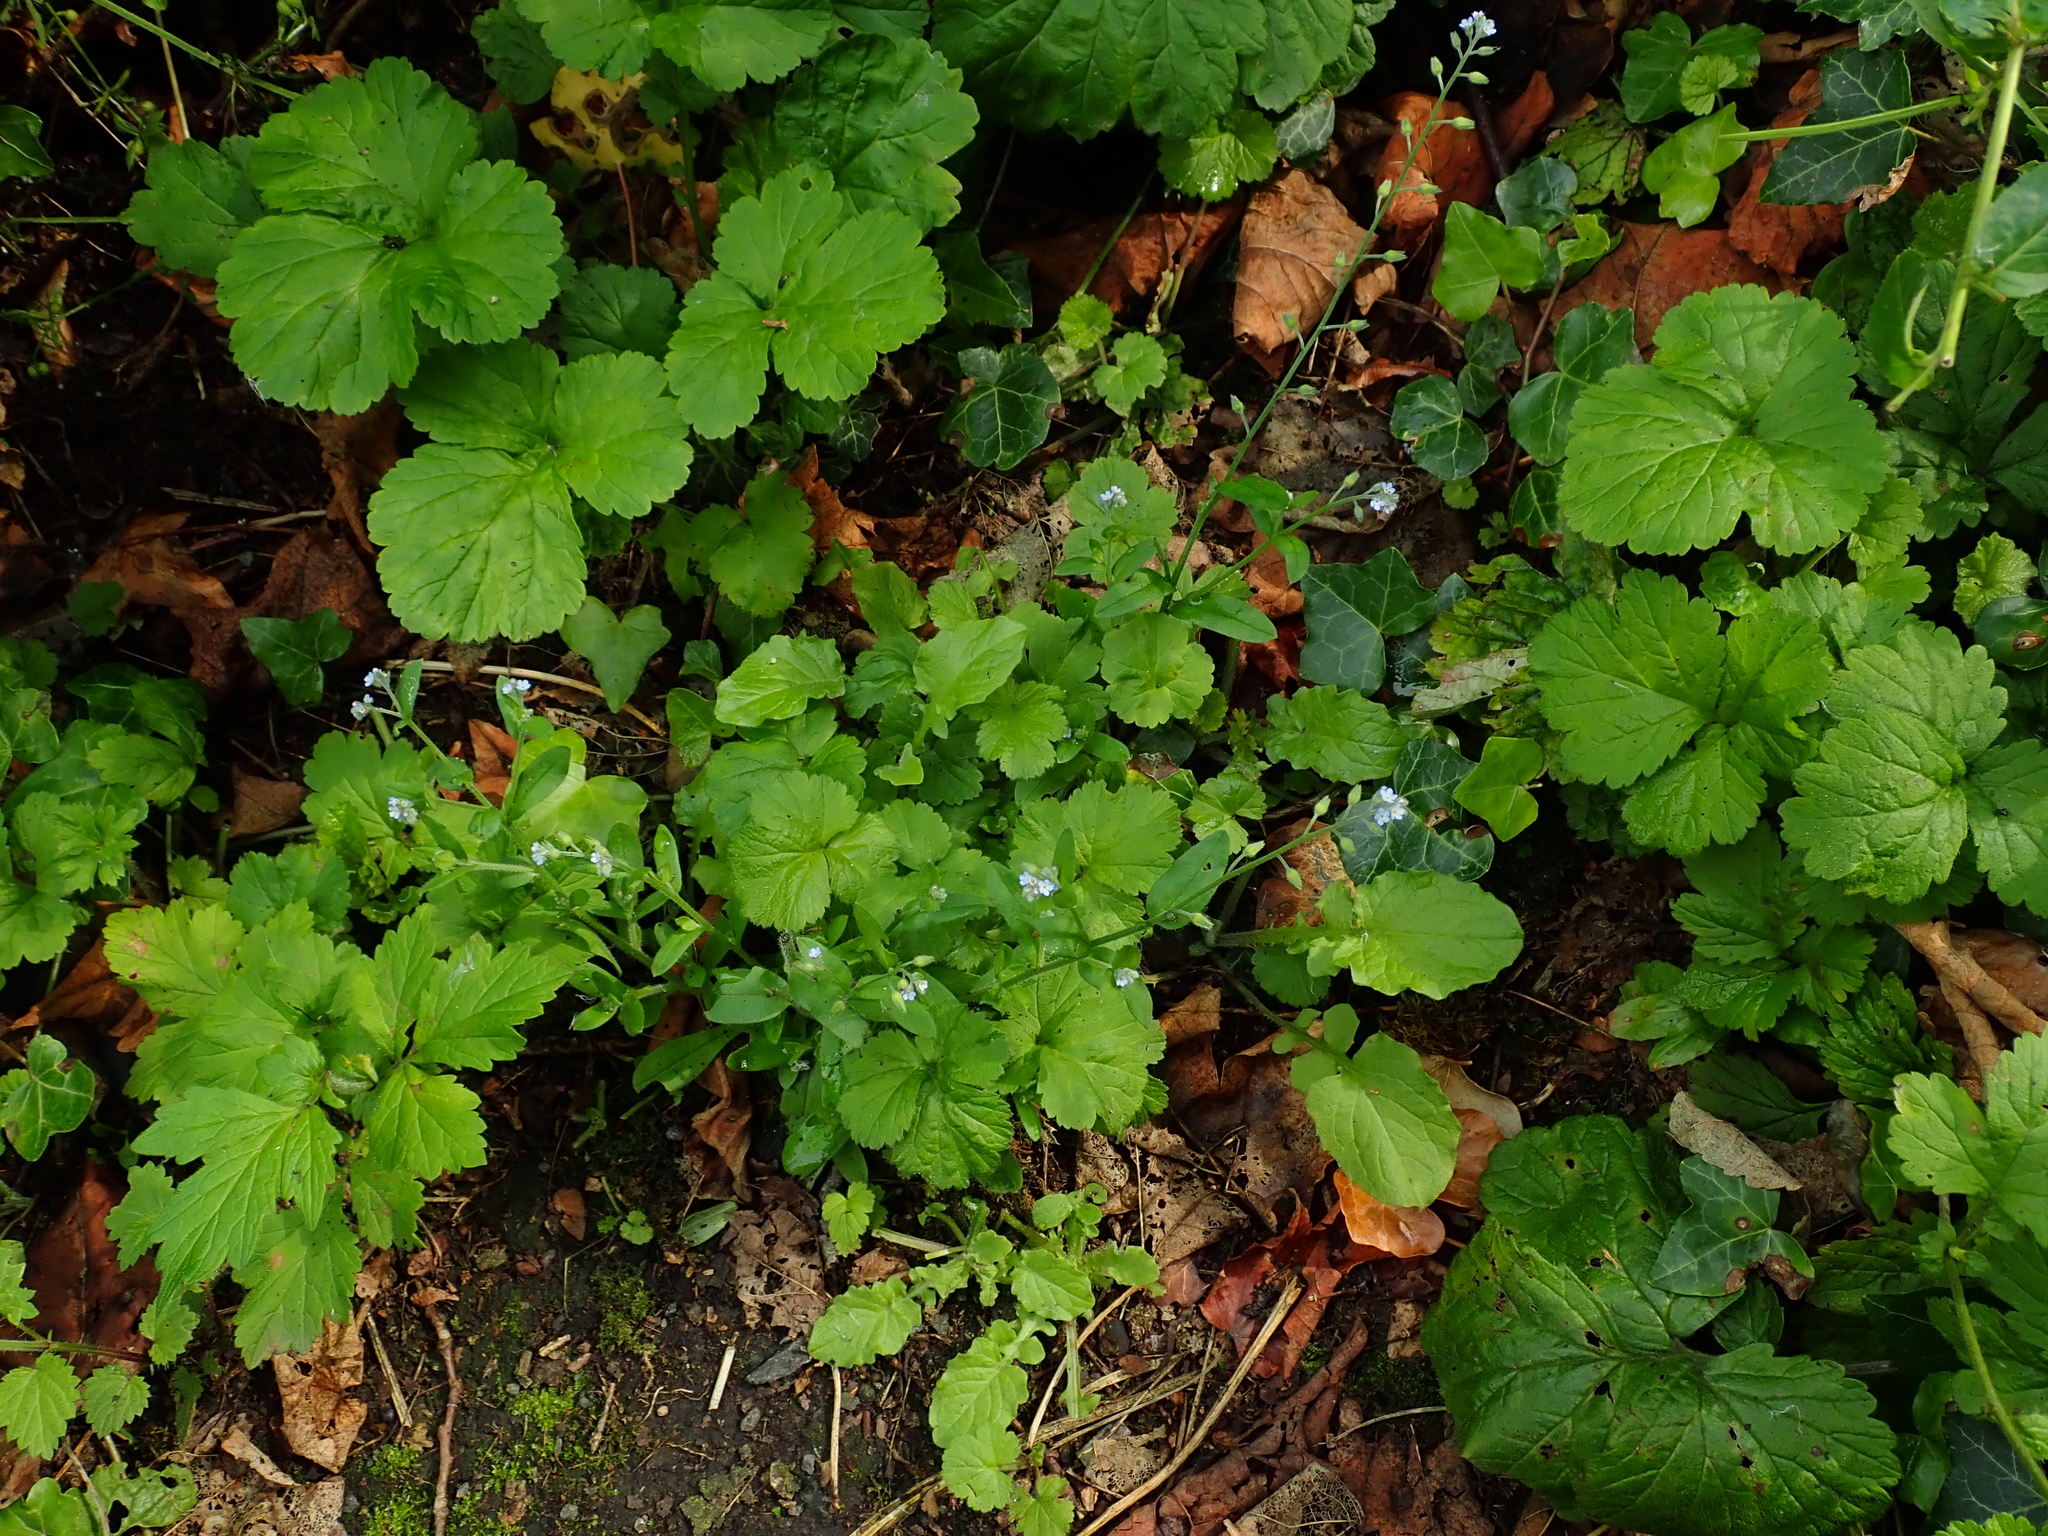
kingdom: Plantae
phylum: Tracheophyta
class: Magnoliopsida
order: Boraginales
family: Boraginaceae
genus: Myosotis
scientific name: Myosotis arvensis
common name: Field forget-me-not
